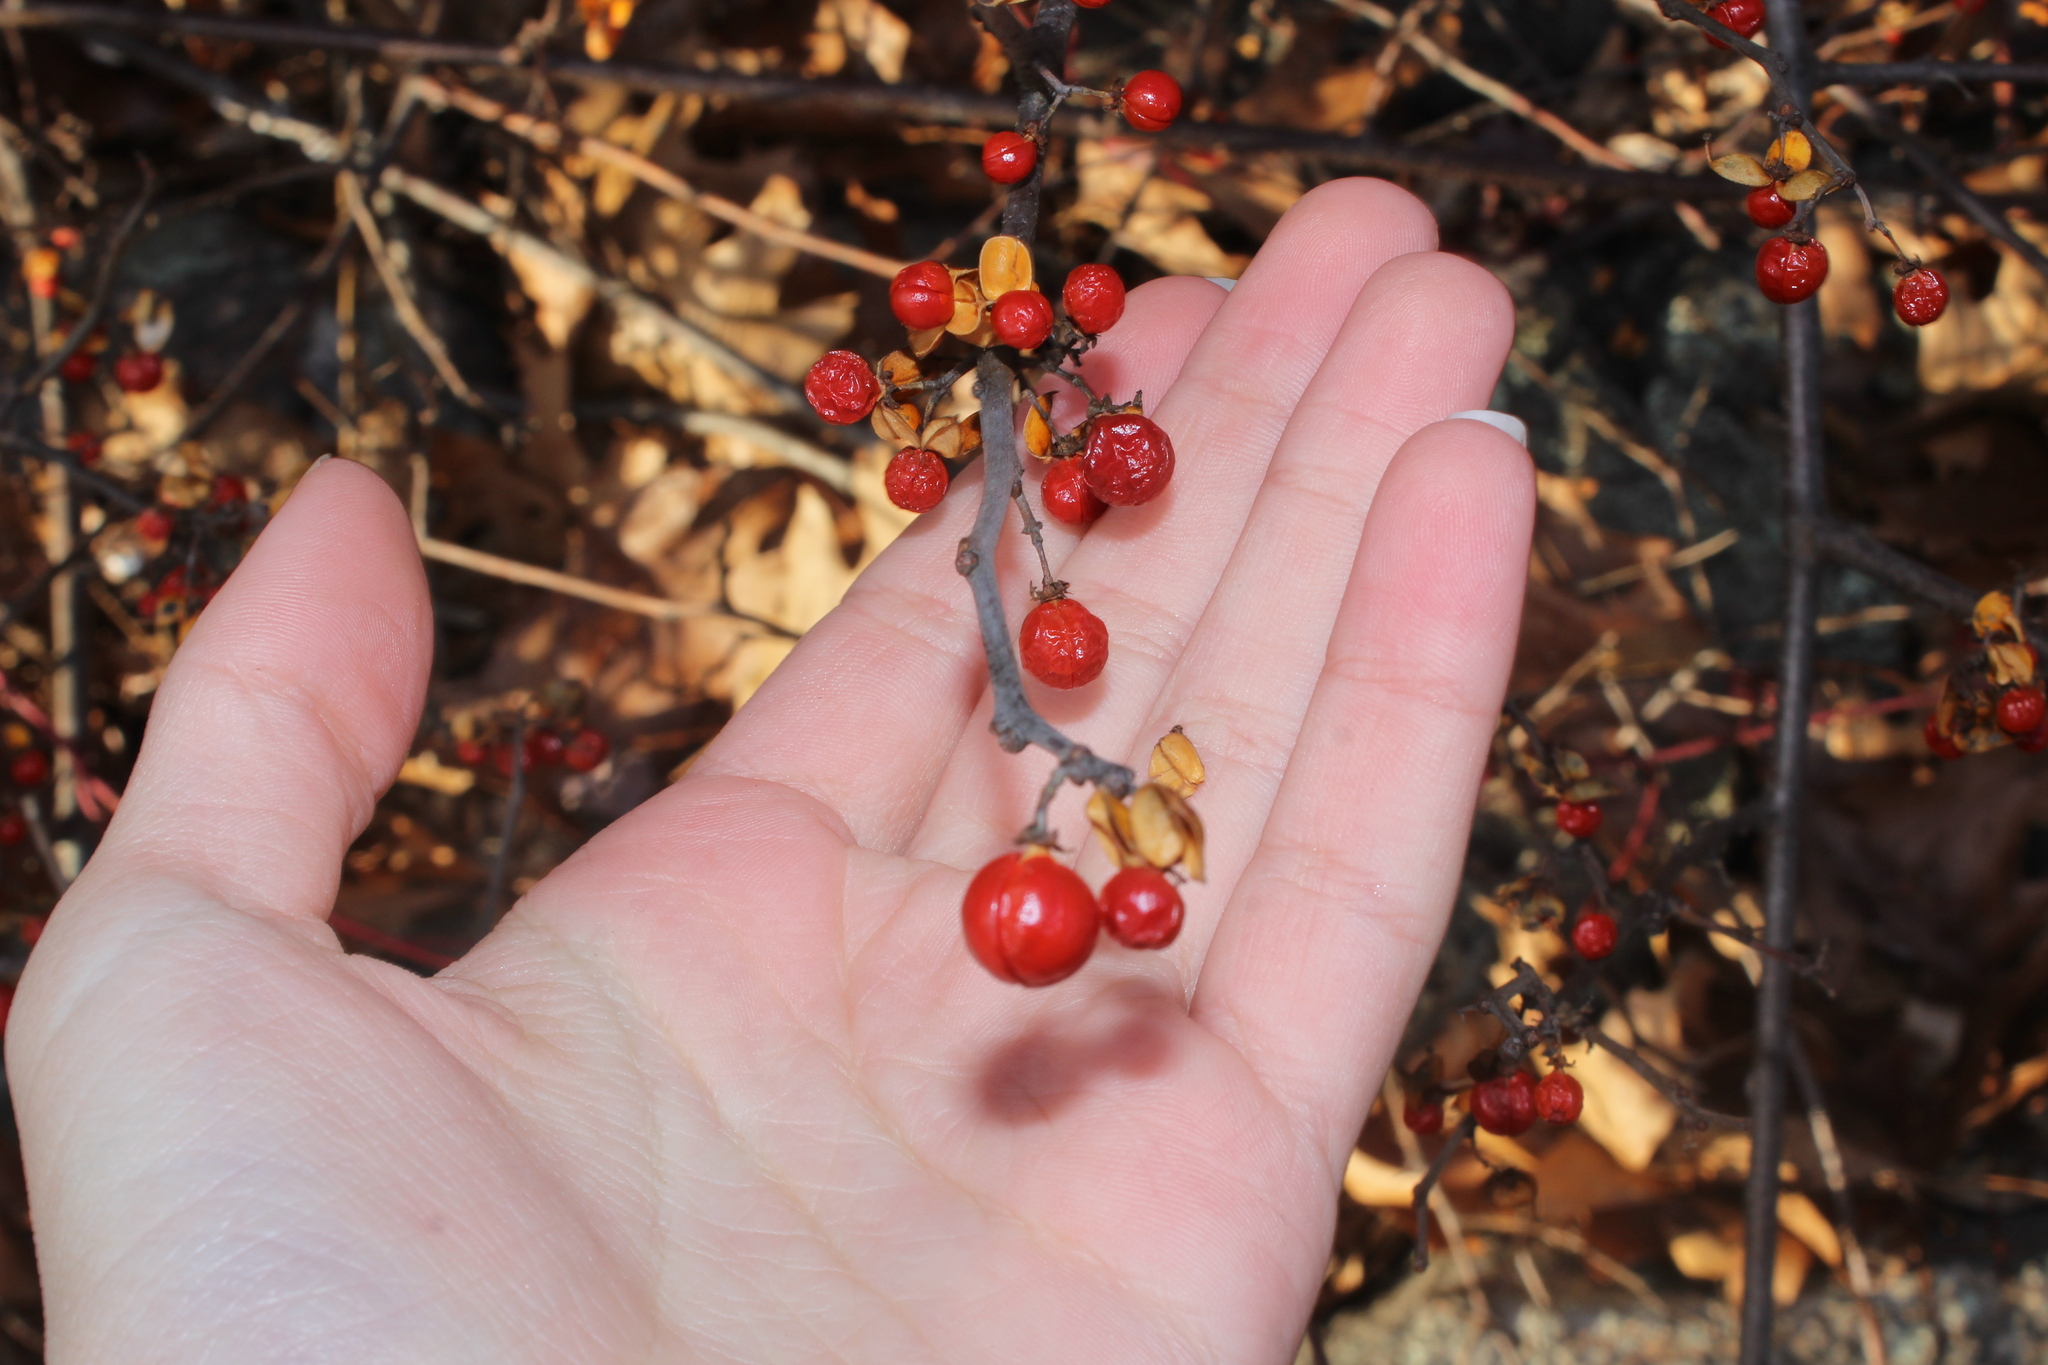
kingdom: Plantae
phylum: Tracheophyta
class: Magnoliopsida
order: Celastrales
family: Celastraceae
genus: Celastrus
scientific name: Celastrus orbiculatus
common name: Oriental bittersweet
